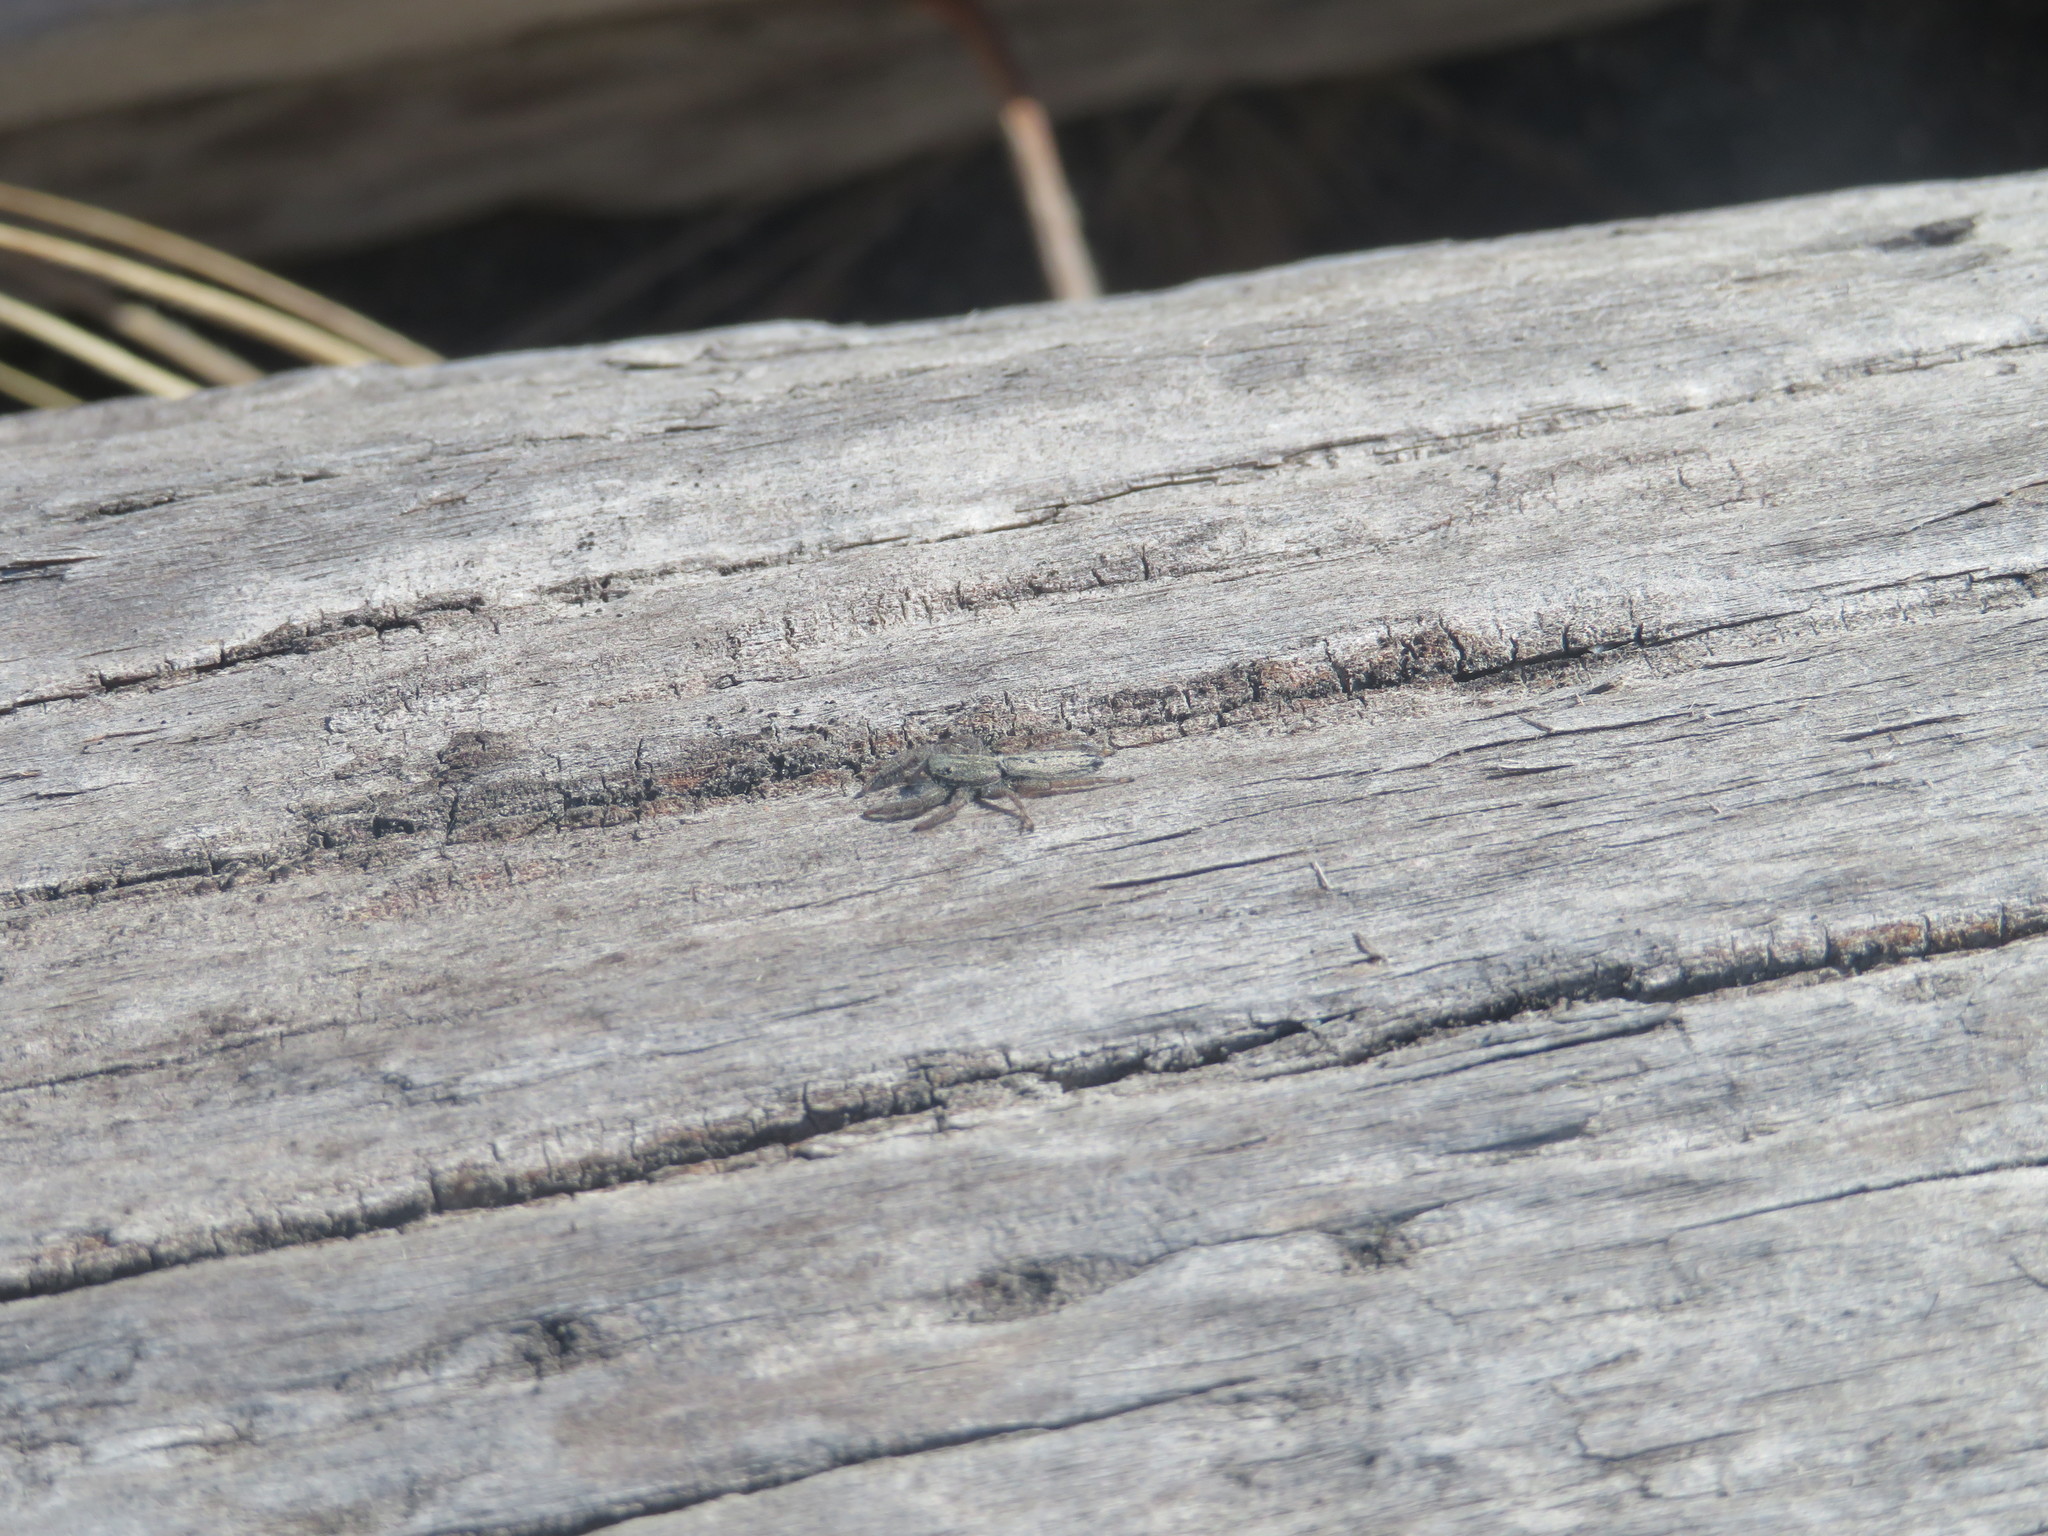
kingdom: Animalia
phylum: Arthropoda
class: Arachnida
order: Araneae
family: Salticidae
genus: Holoplatys
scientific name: Holoplatys apressus
